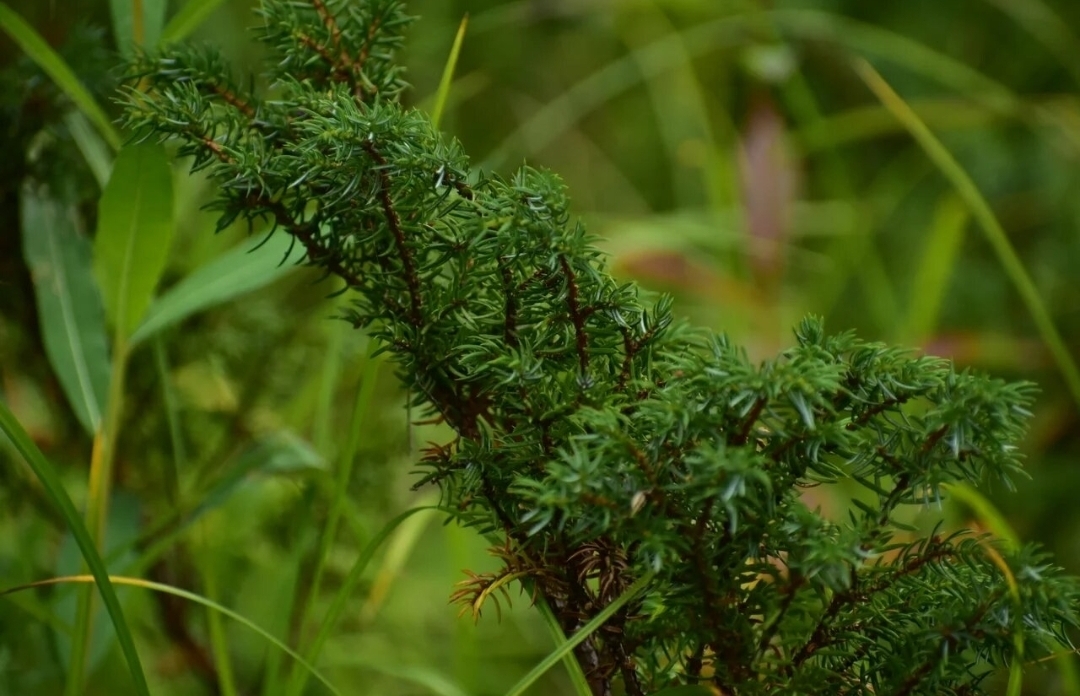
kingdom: Plantae
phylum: Tracheophyta
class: Pinopsida
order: Pinales
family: Cupressaceae
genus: Juniperus
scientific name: Juniperus communis
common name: Common juniper
